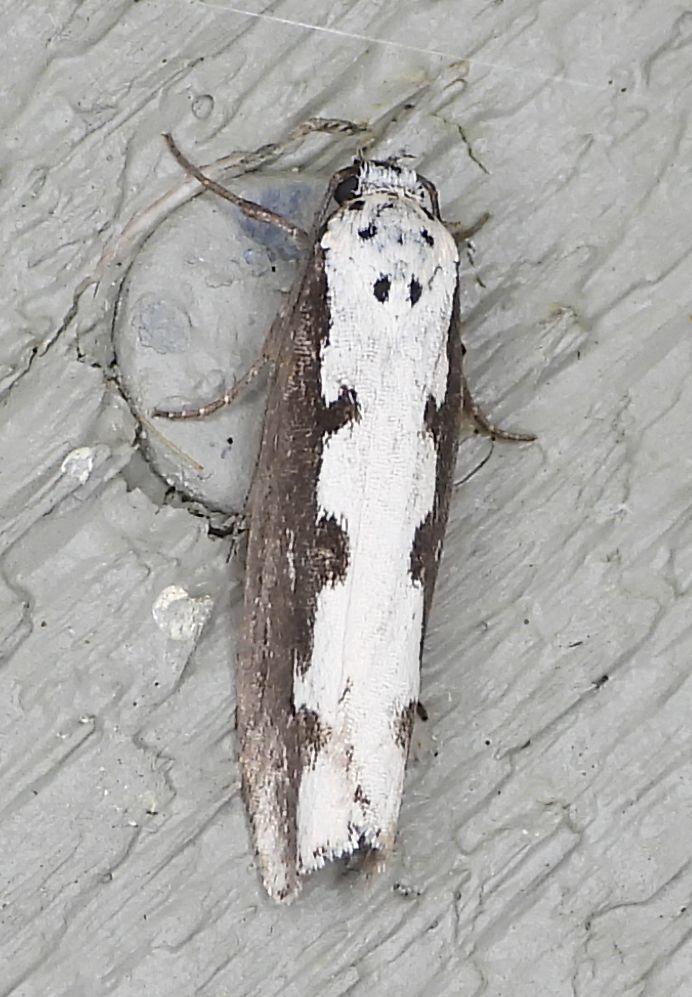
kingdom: Animalia
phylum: Arthropoda
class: Insecta
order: Lepidoptera
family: Ethmiidae
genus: Ethmia
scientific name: Ethmia bipunctella
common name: Bordered ermel
